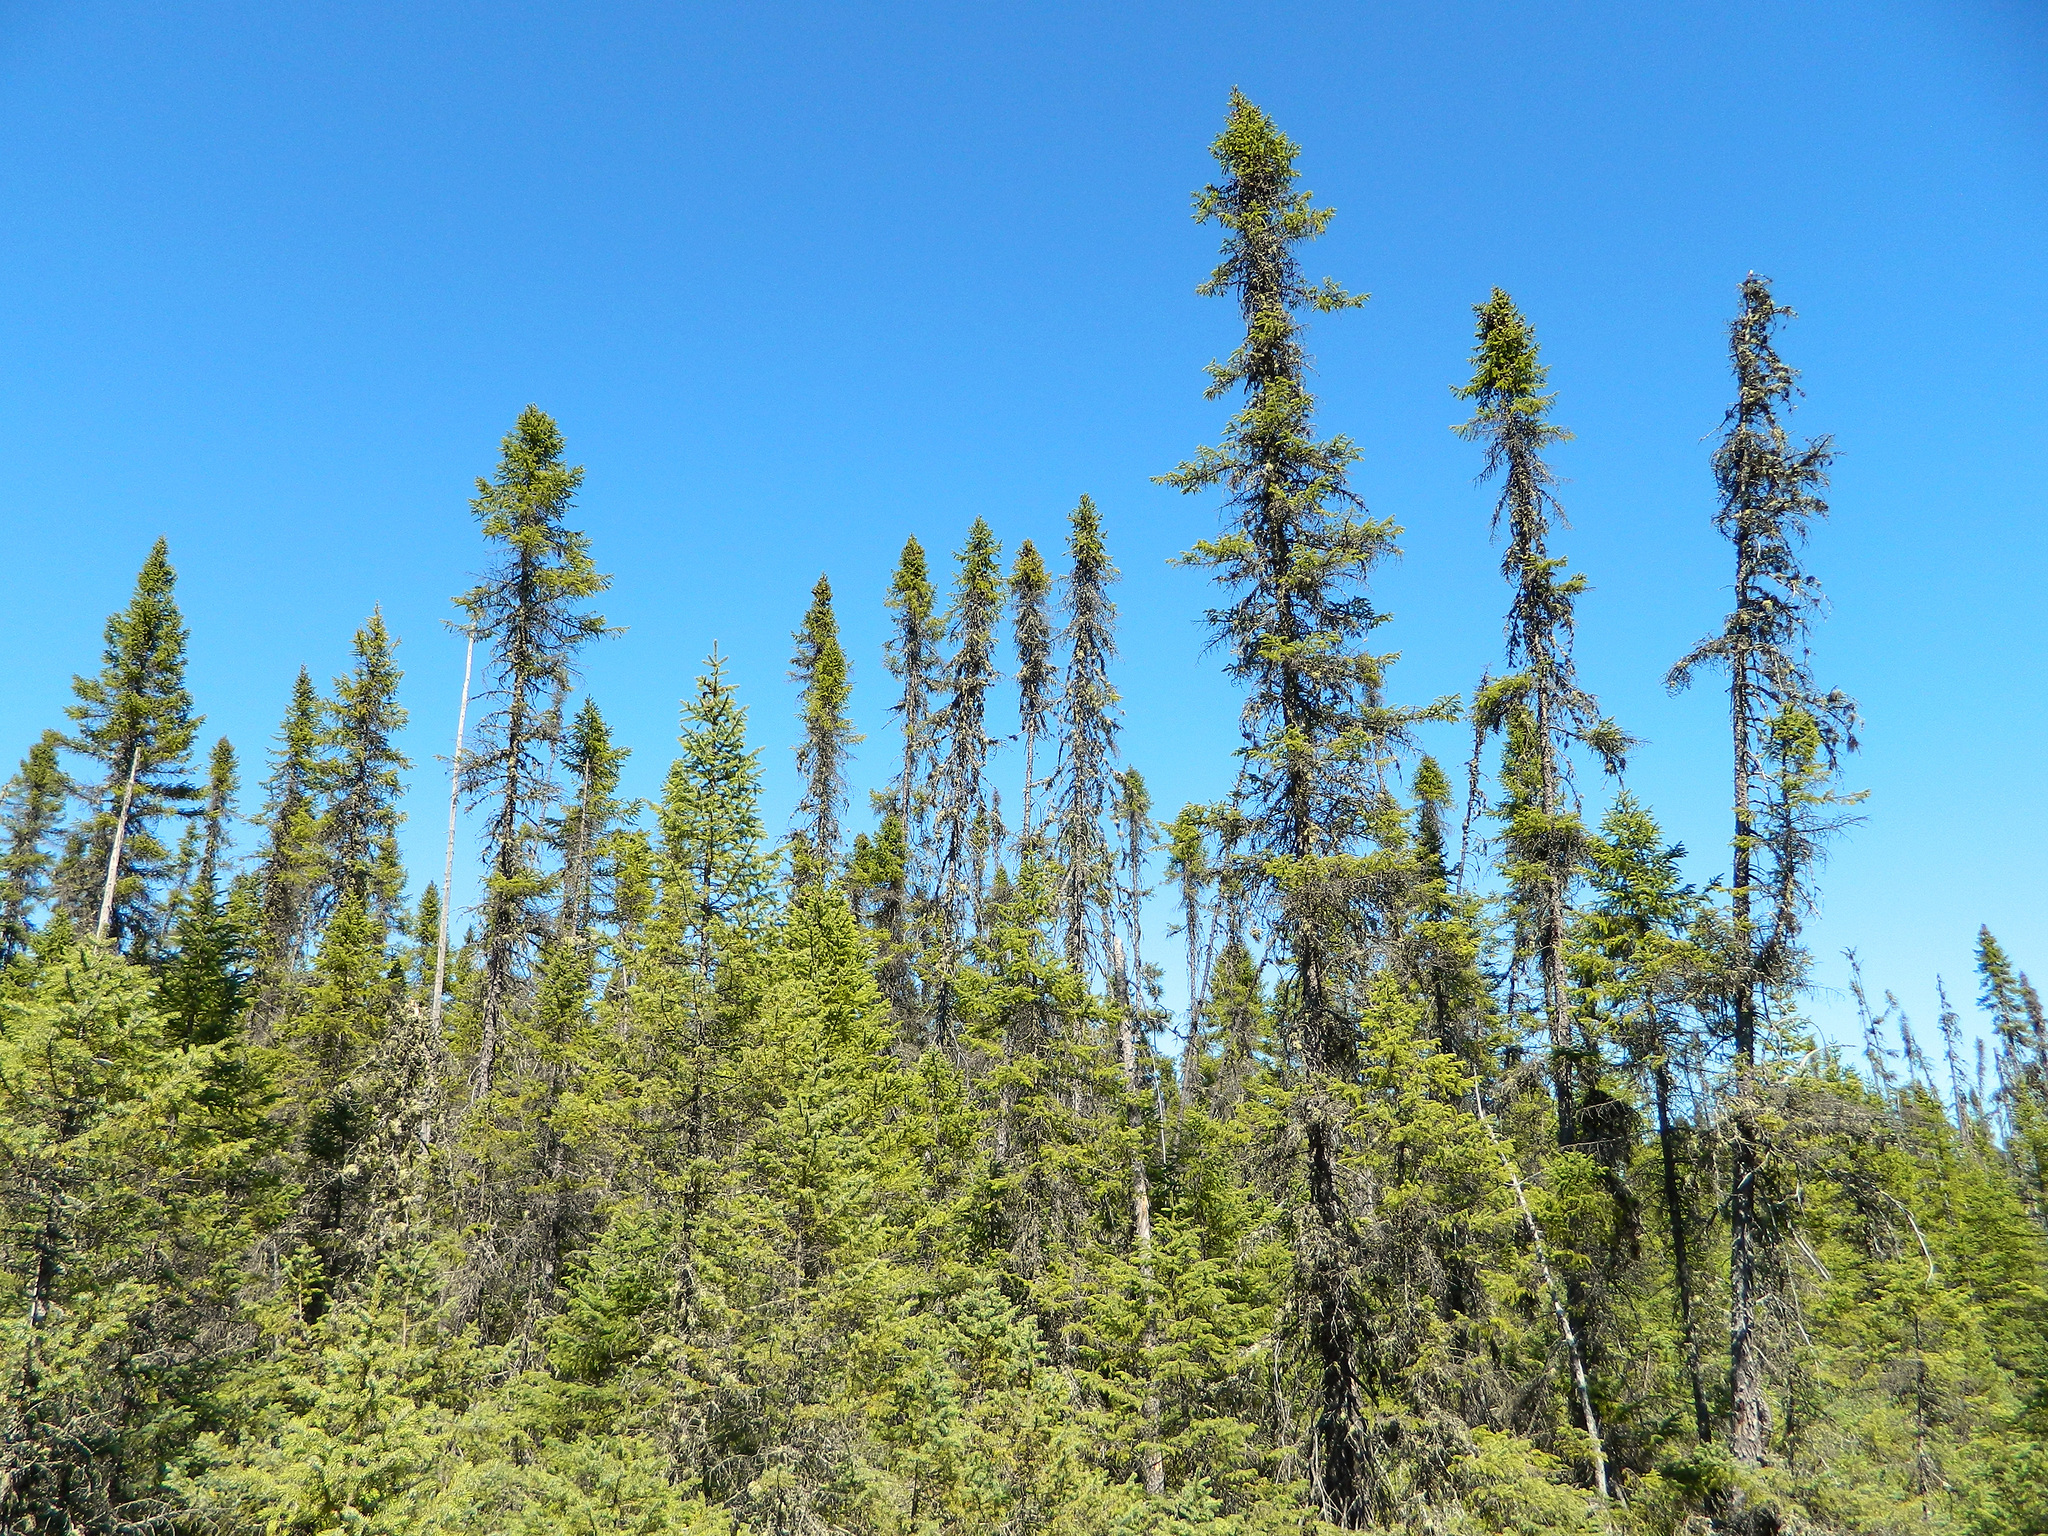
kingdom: Plantae
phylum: Tracheophyta
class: Pinopsida
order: Pinales
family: Pinaceae
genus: Picea
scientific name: Picea mariana
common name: Black spruce
